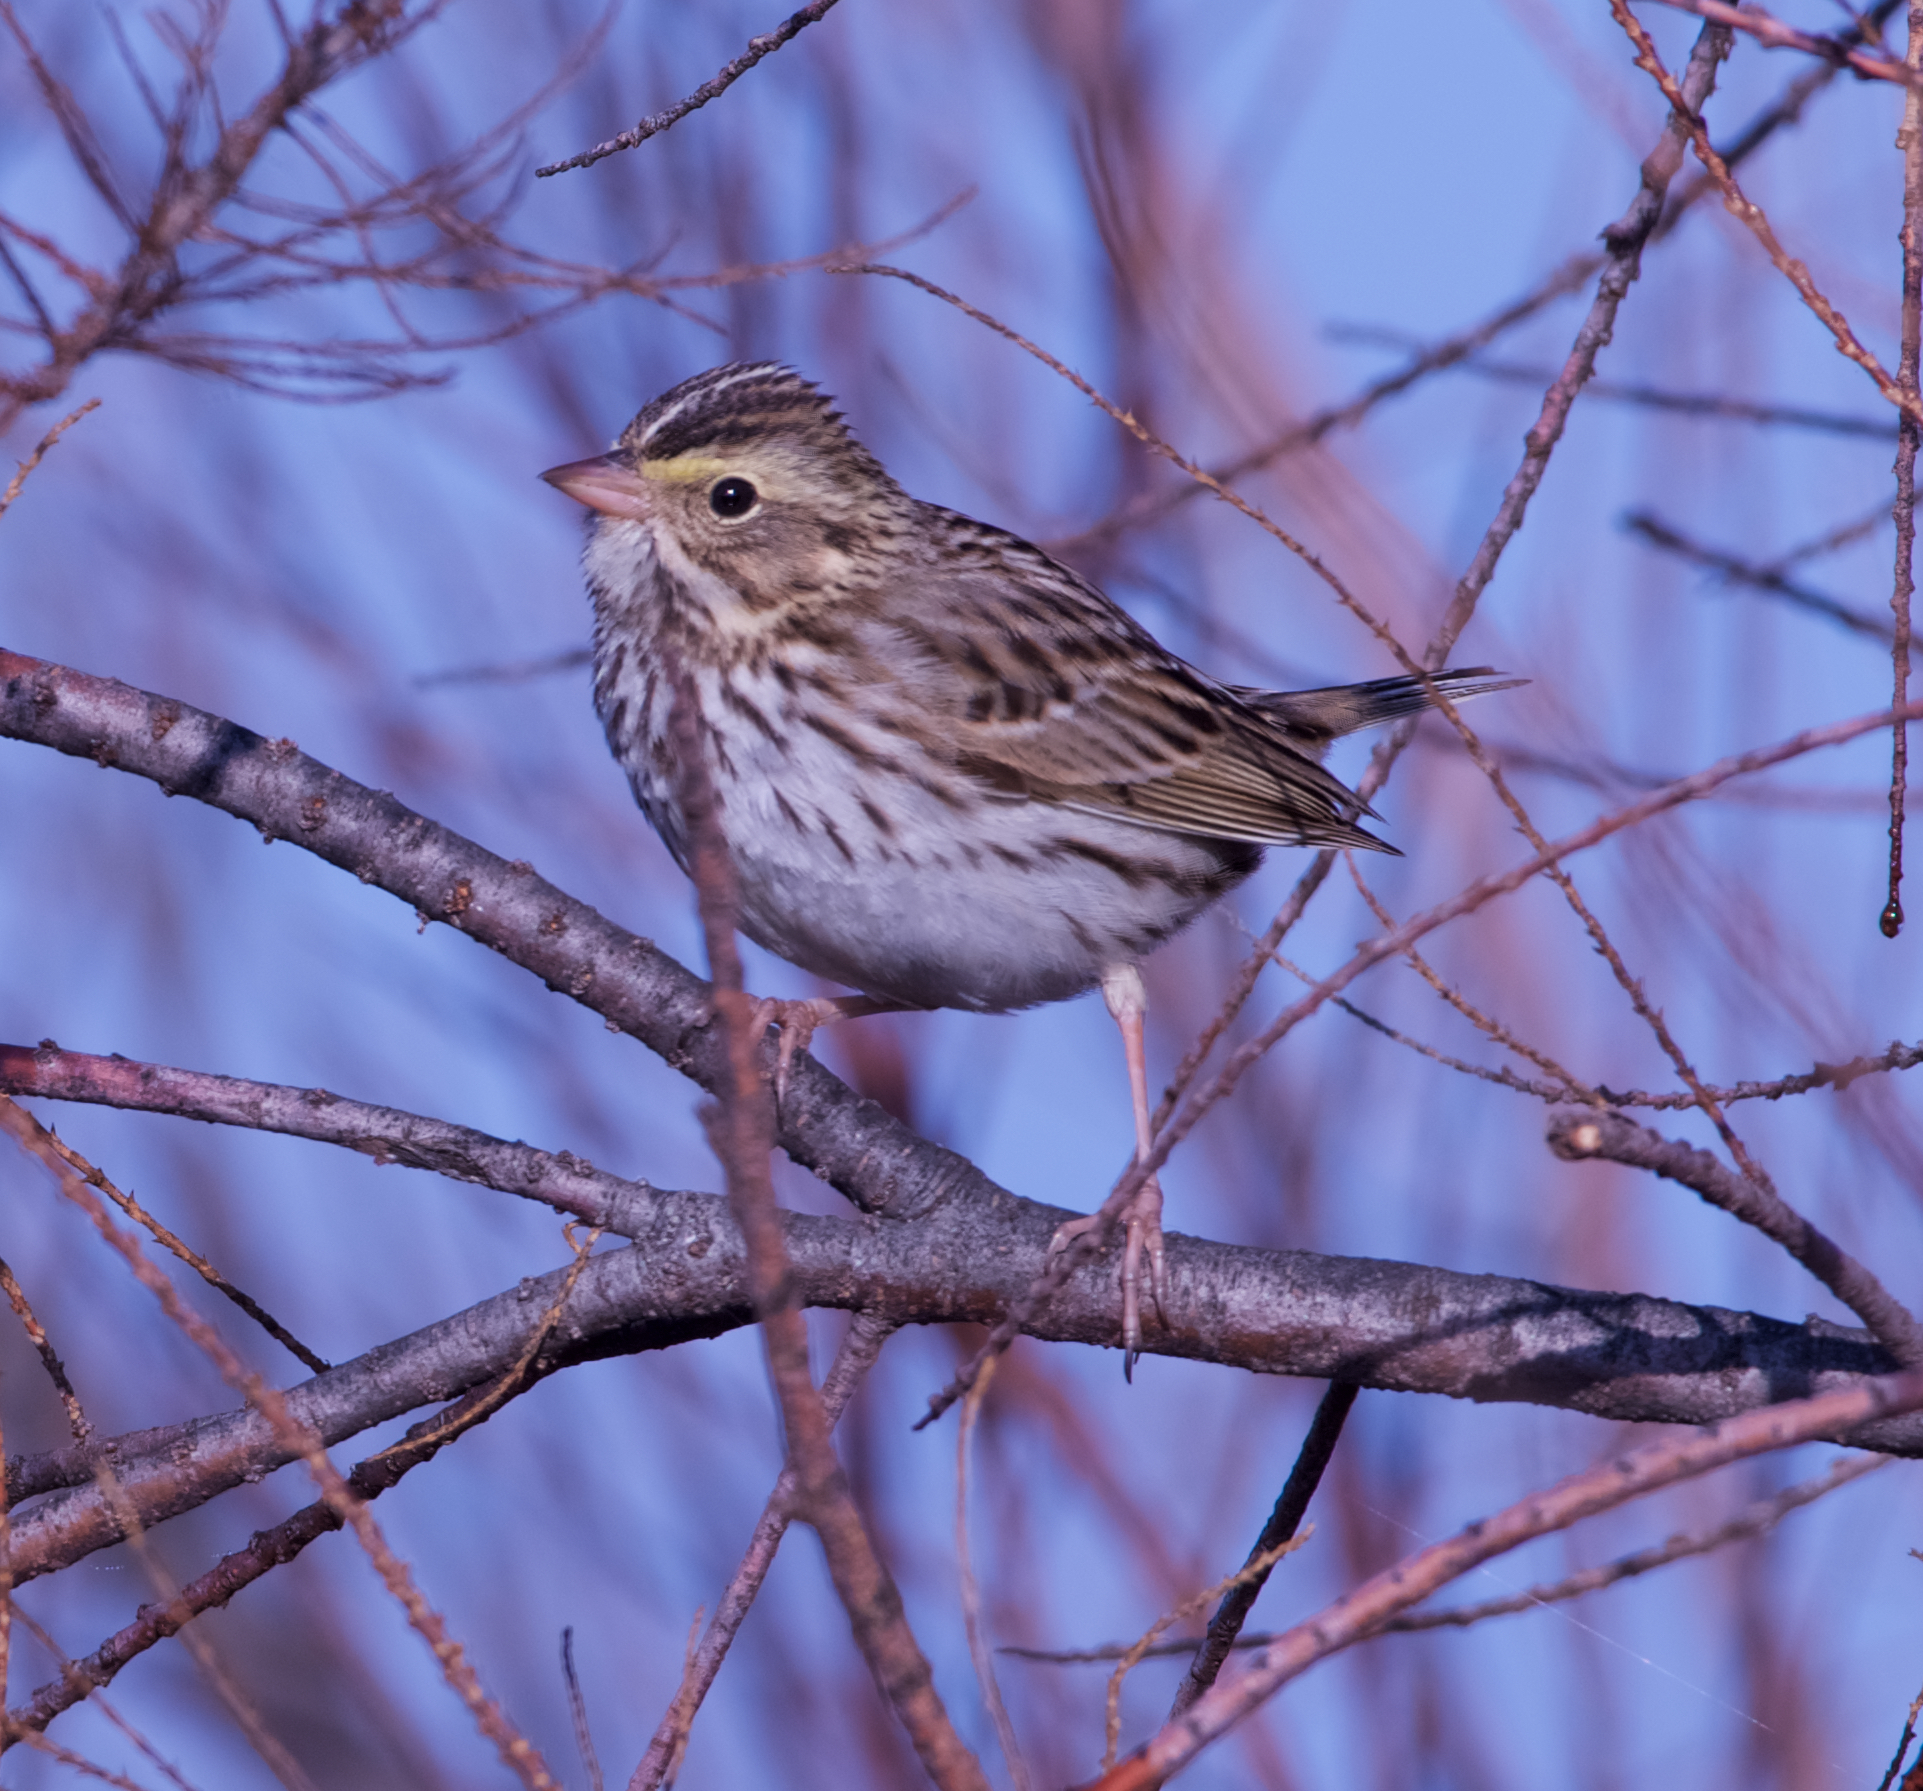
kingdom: Animalia
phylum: Chordata
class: Aves
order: Passeriformes
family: Passerellidae
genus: Passerculus
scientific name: Passerculus sandwichensis
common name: Savannah sparrow
